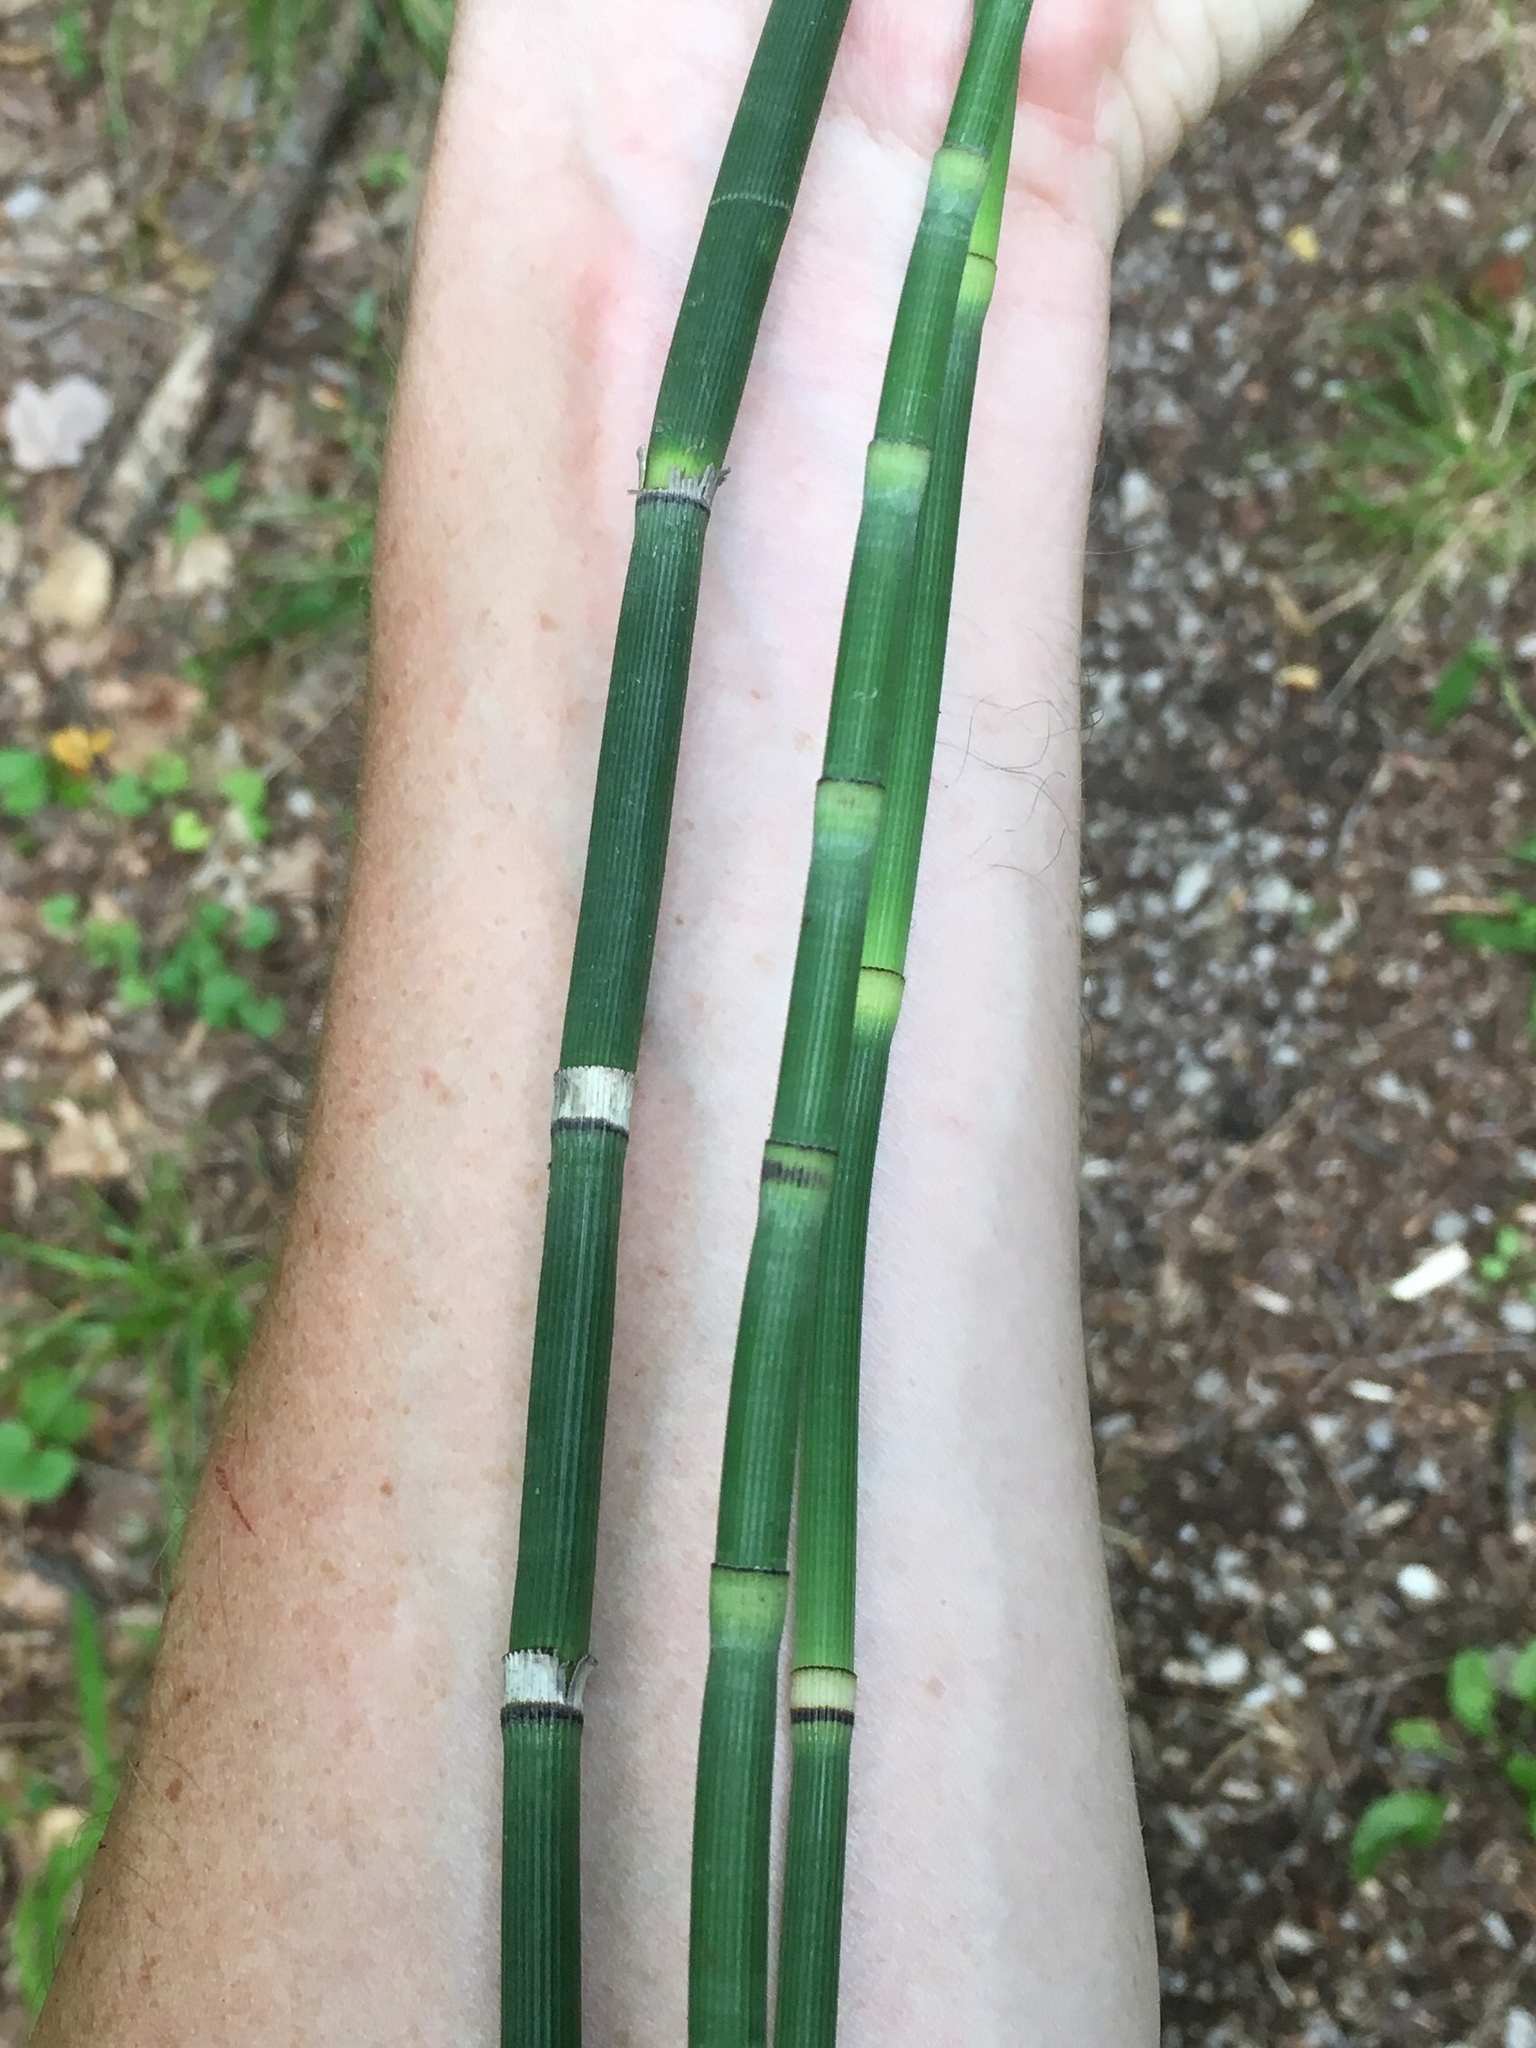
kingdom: Plantae
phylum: Tracheophyta
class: Polypodiopsida
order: Equisetales
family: Equisetaceae
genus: Equisetum
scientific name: Equisetum hyemale
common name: Rough horsetail
